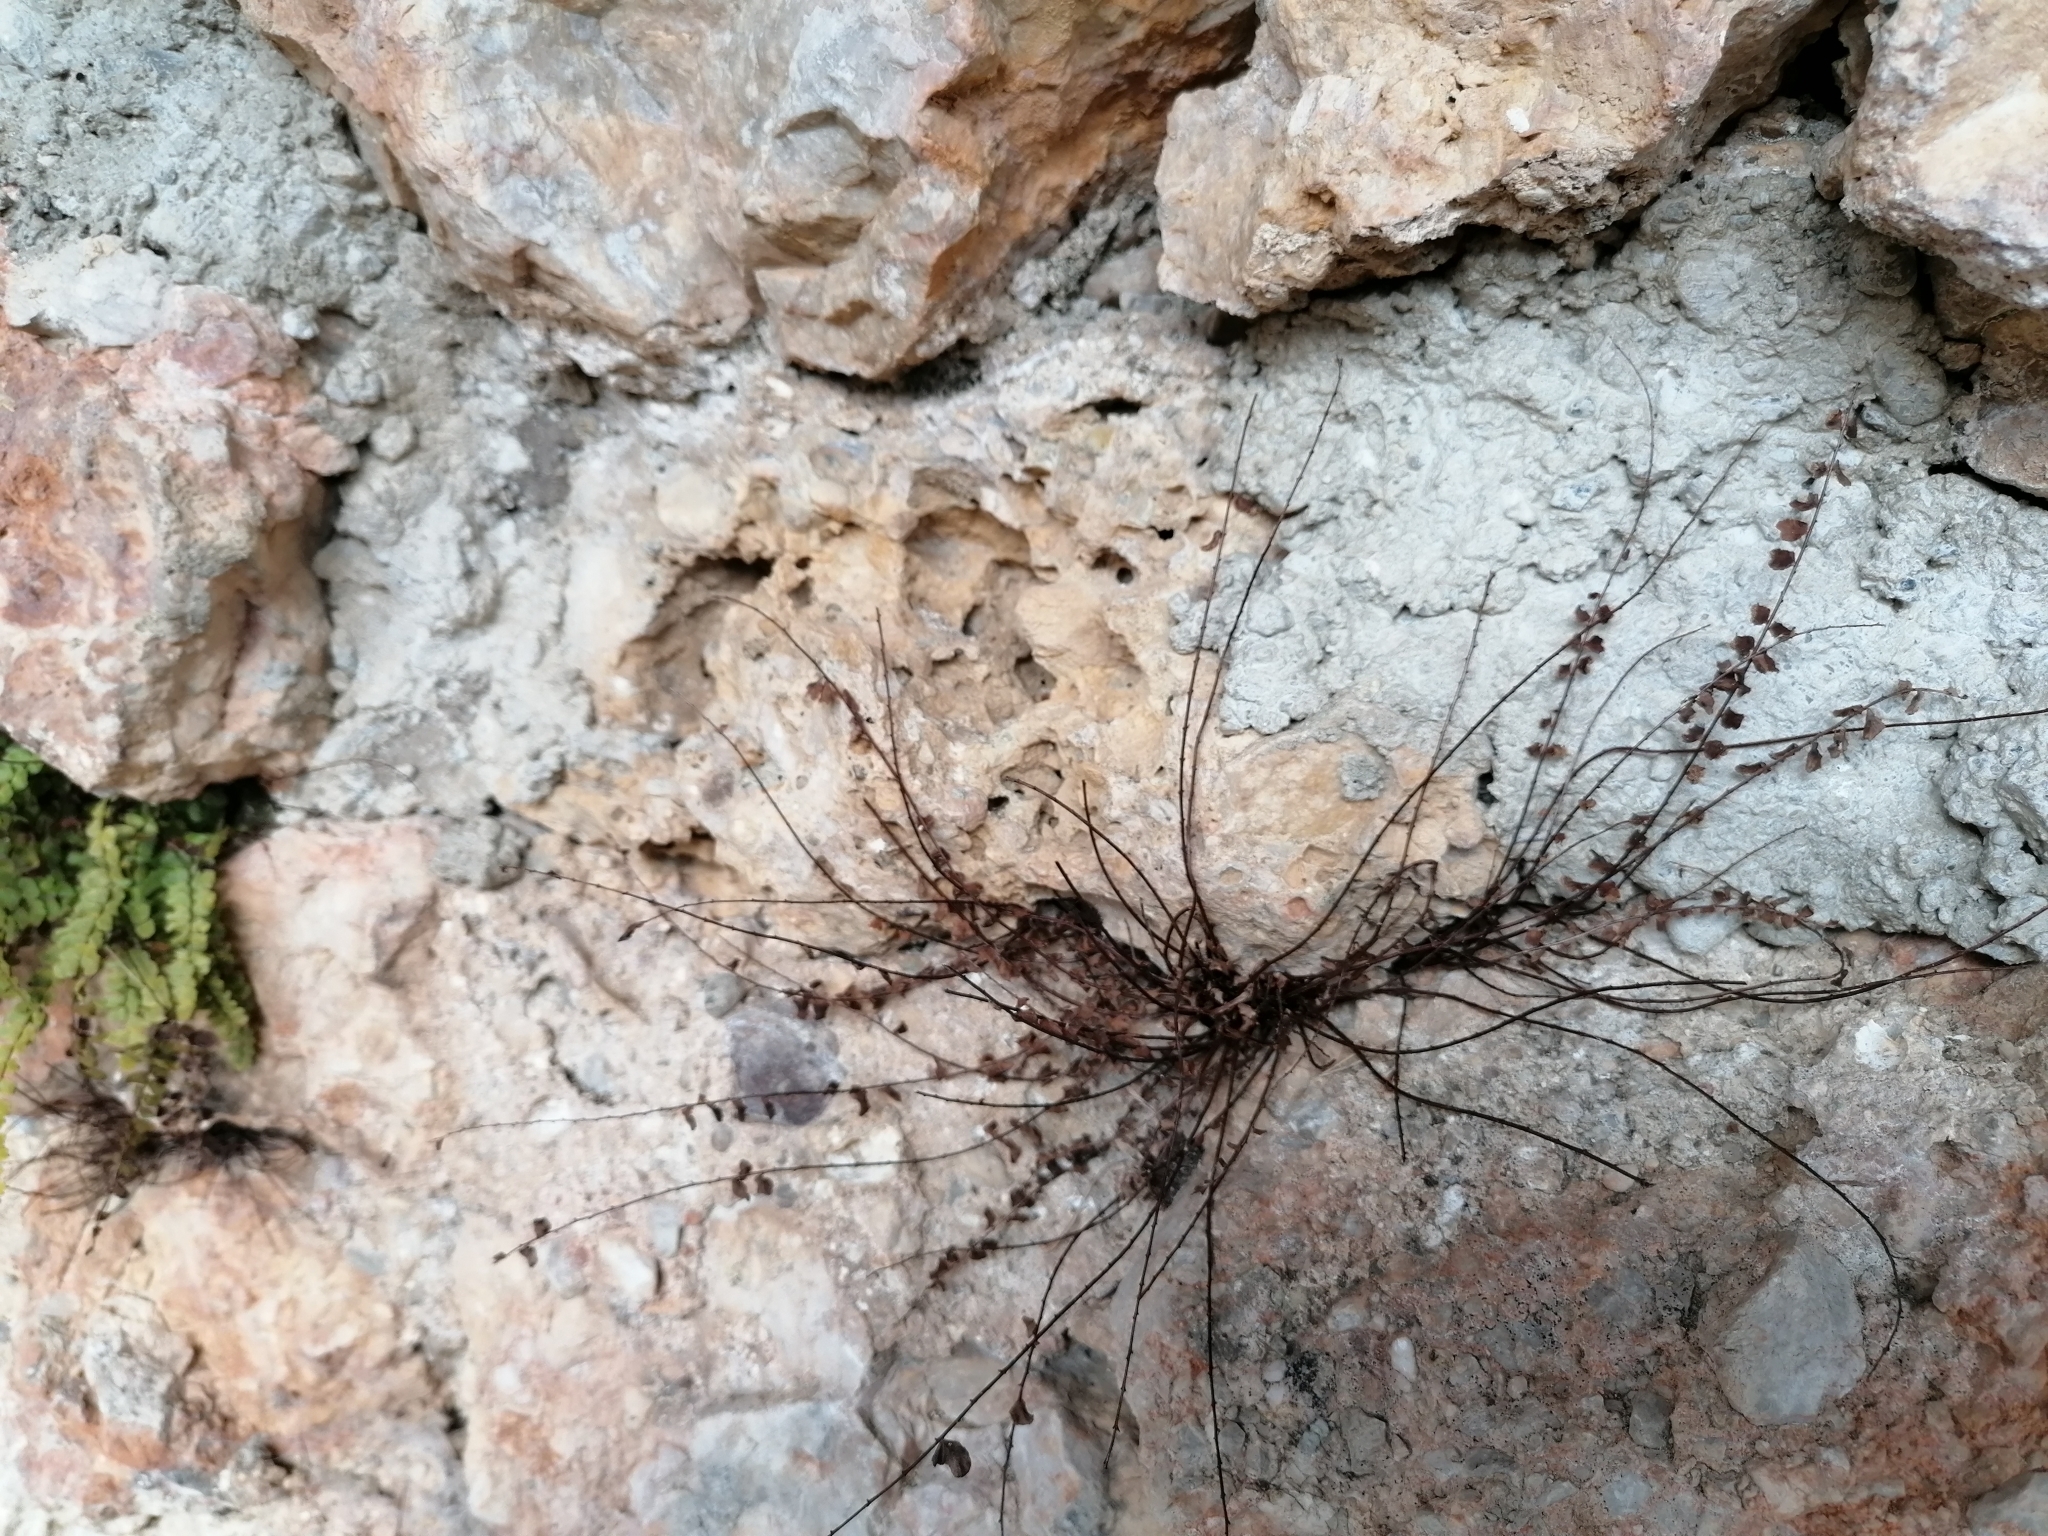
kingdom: Plantae
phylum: Tracheophyta
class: Polypodiopsida
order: Polypodiales
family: Aspleniaceae
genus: Asplenium
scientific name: Asplenium trichomanes
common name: Maidenhair spleenwort
